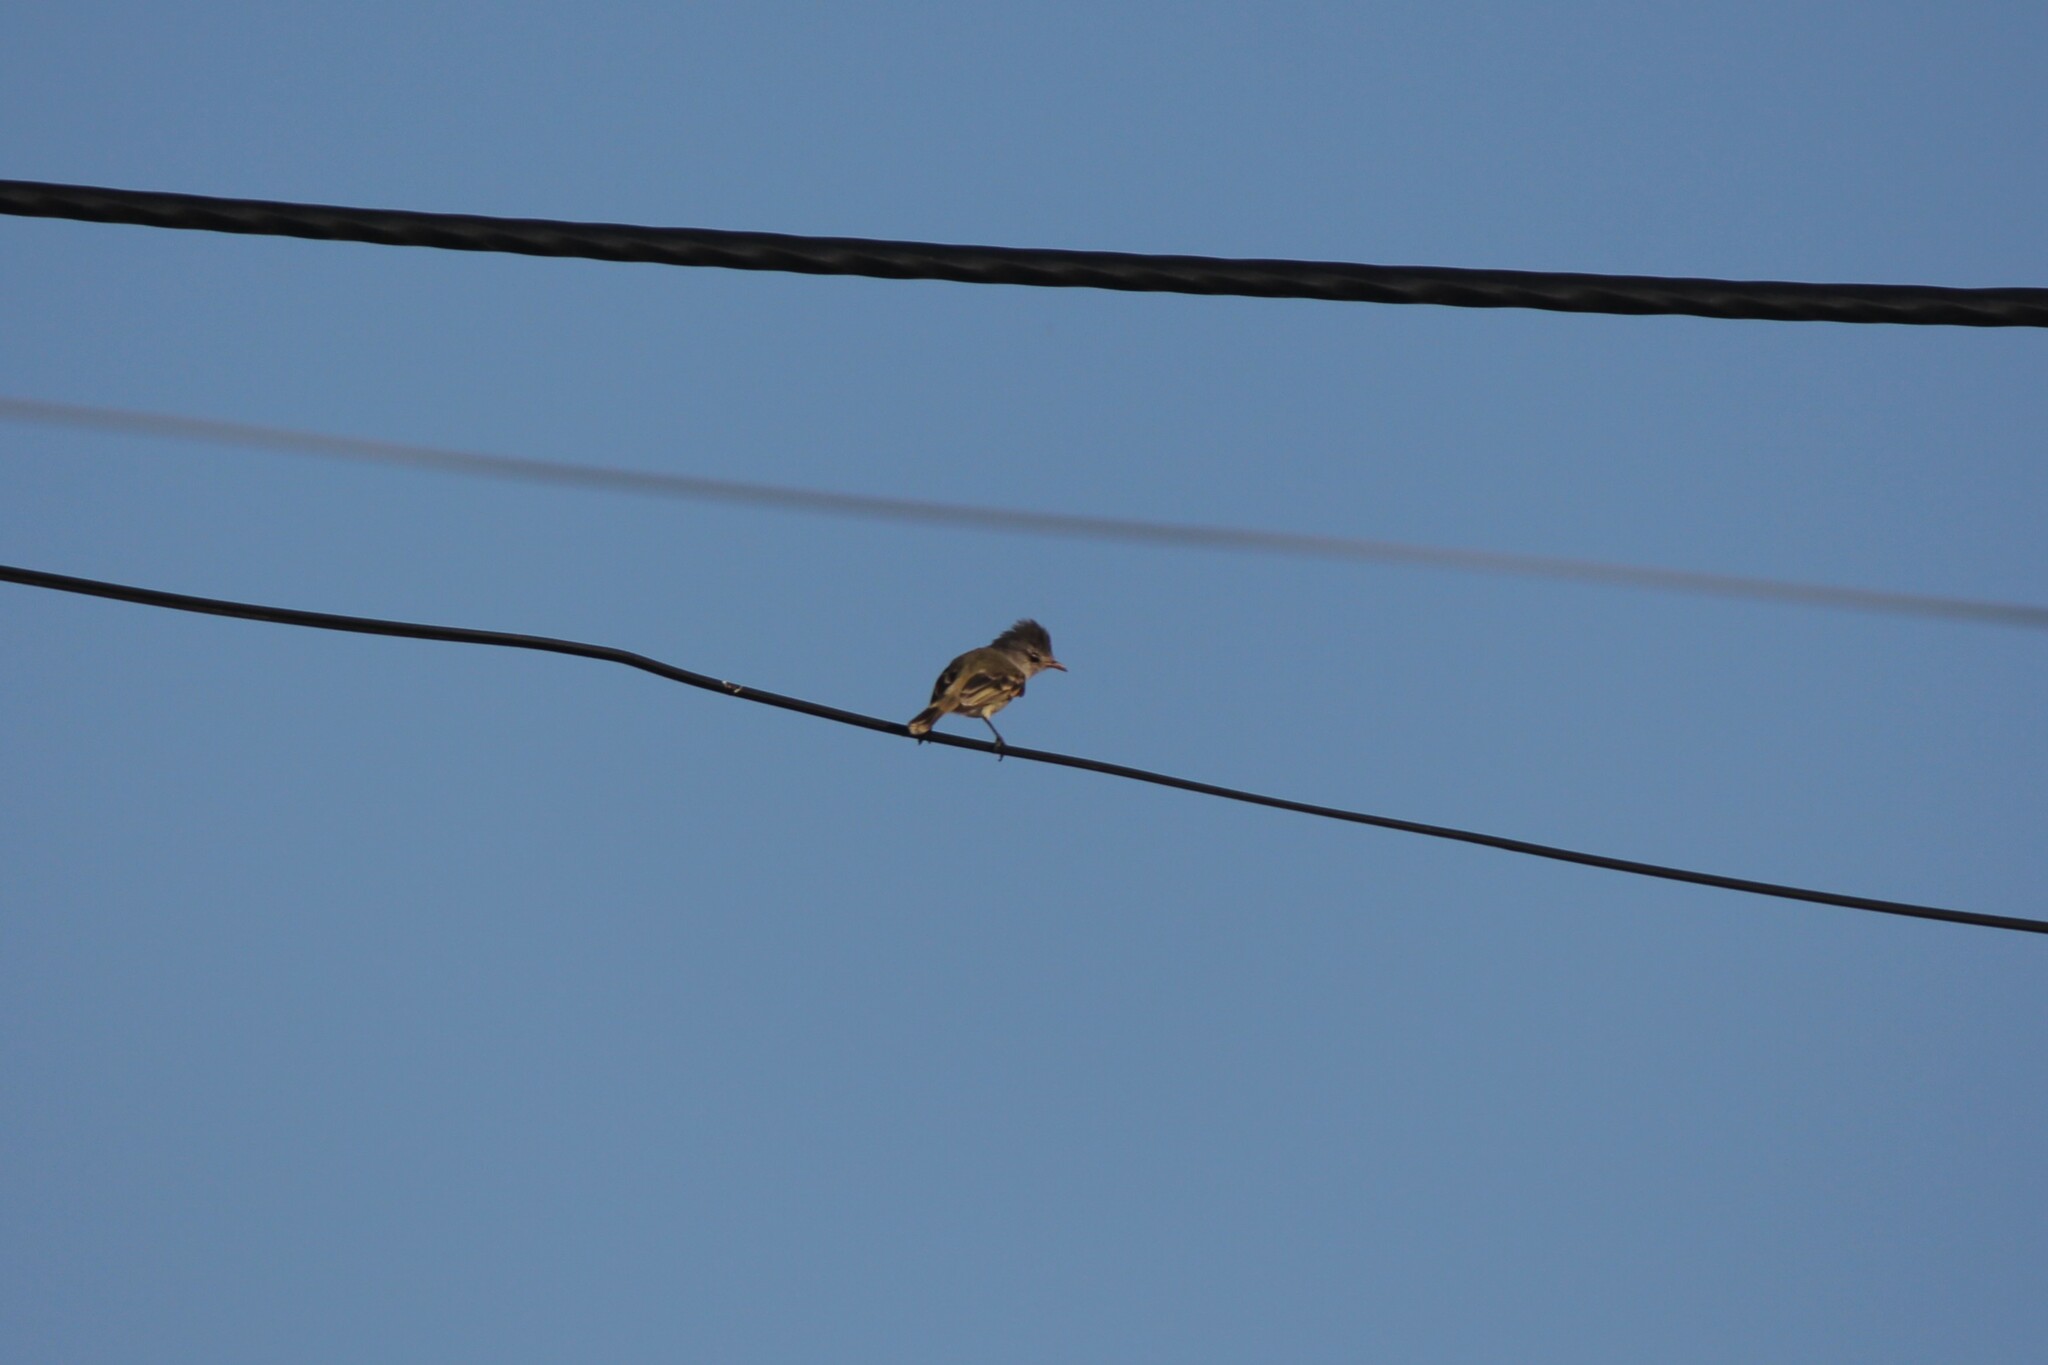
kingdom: Animalia
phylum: Chordata
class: Aves
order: Passeriformes
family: Tyrannidae
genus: Camptostoma
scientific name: Camptostoma obsoletum
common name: Southern beardless-tyrannulet
